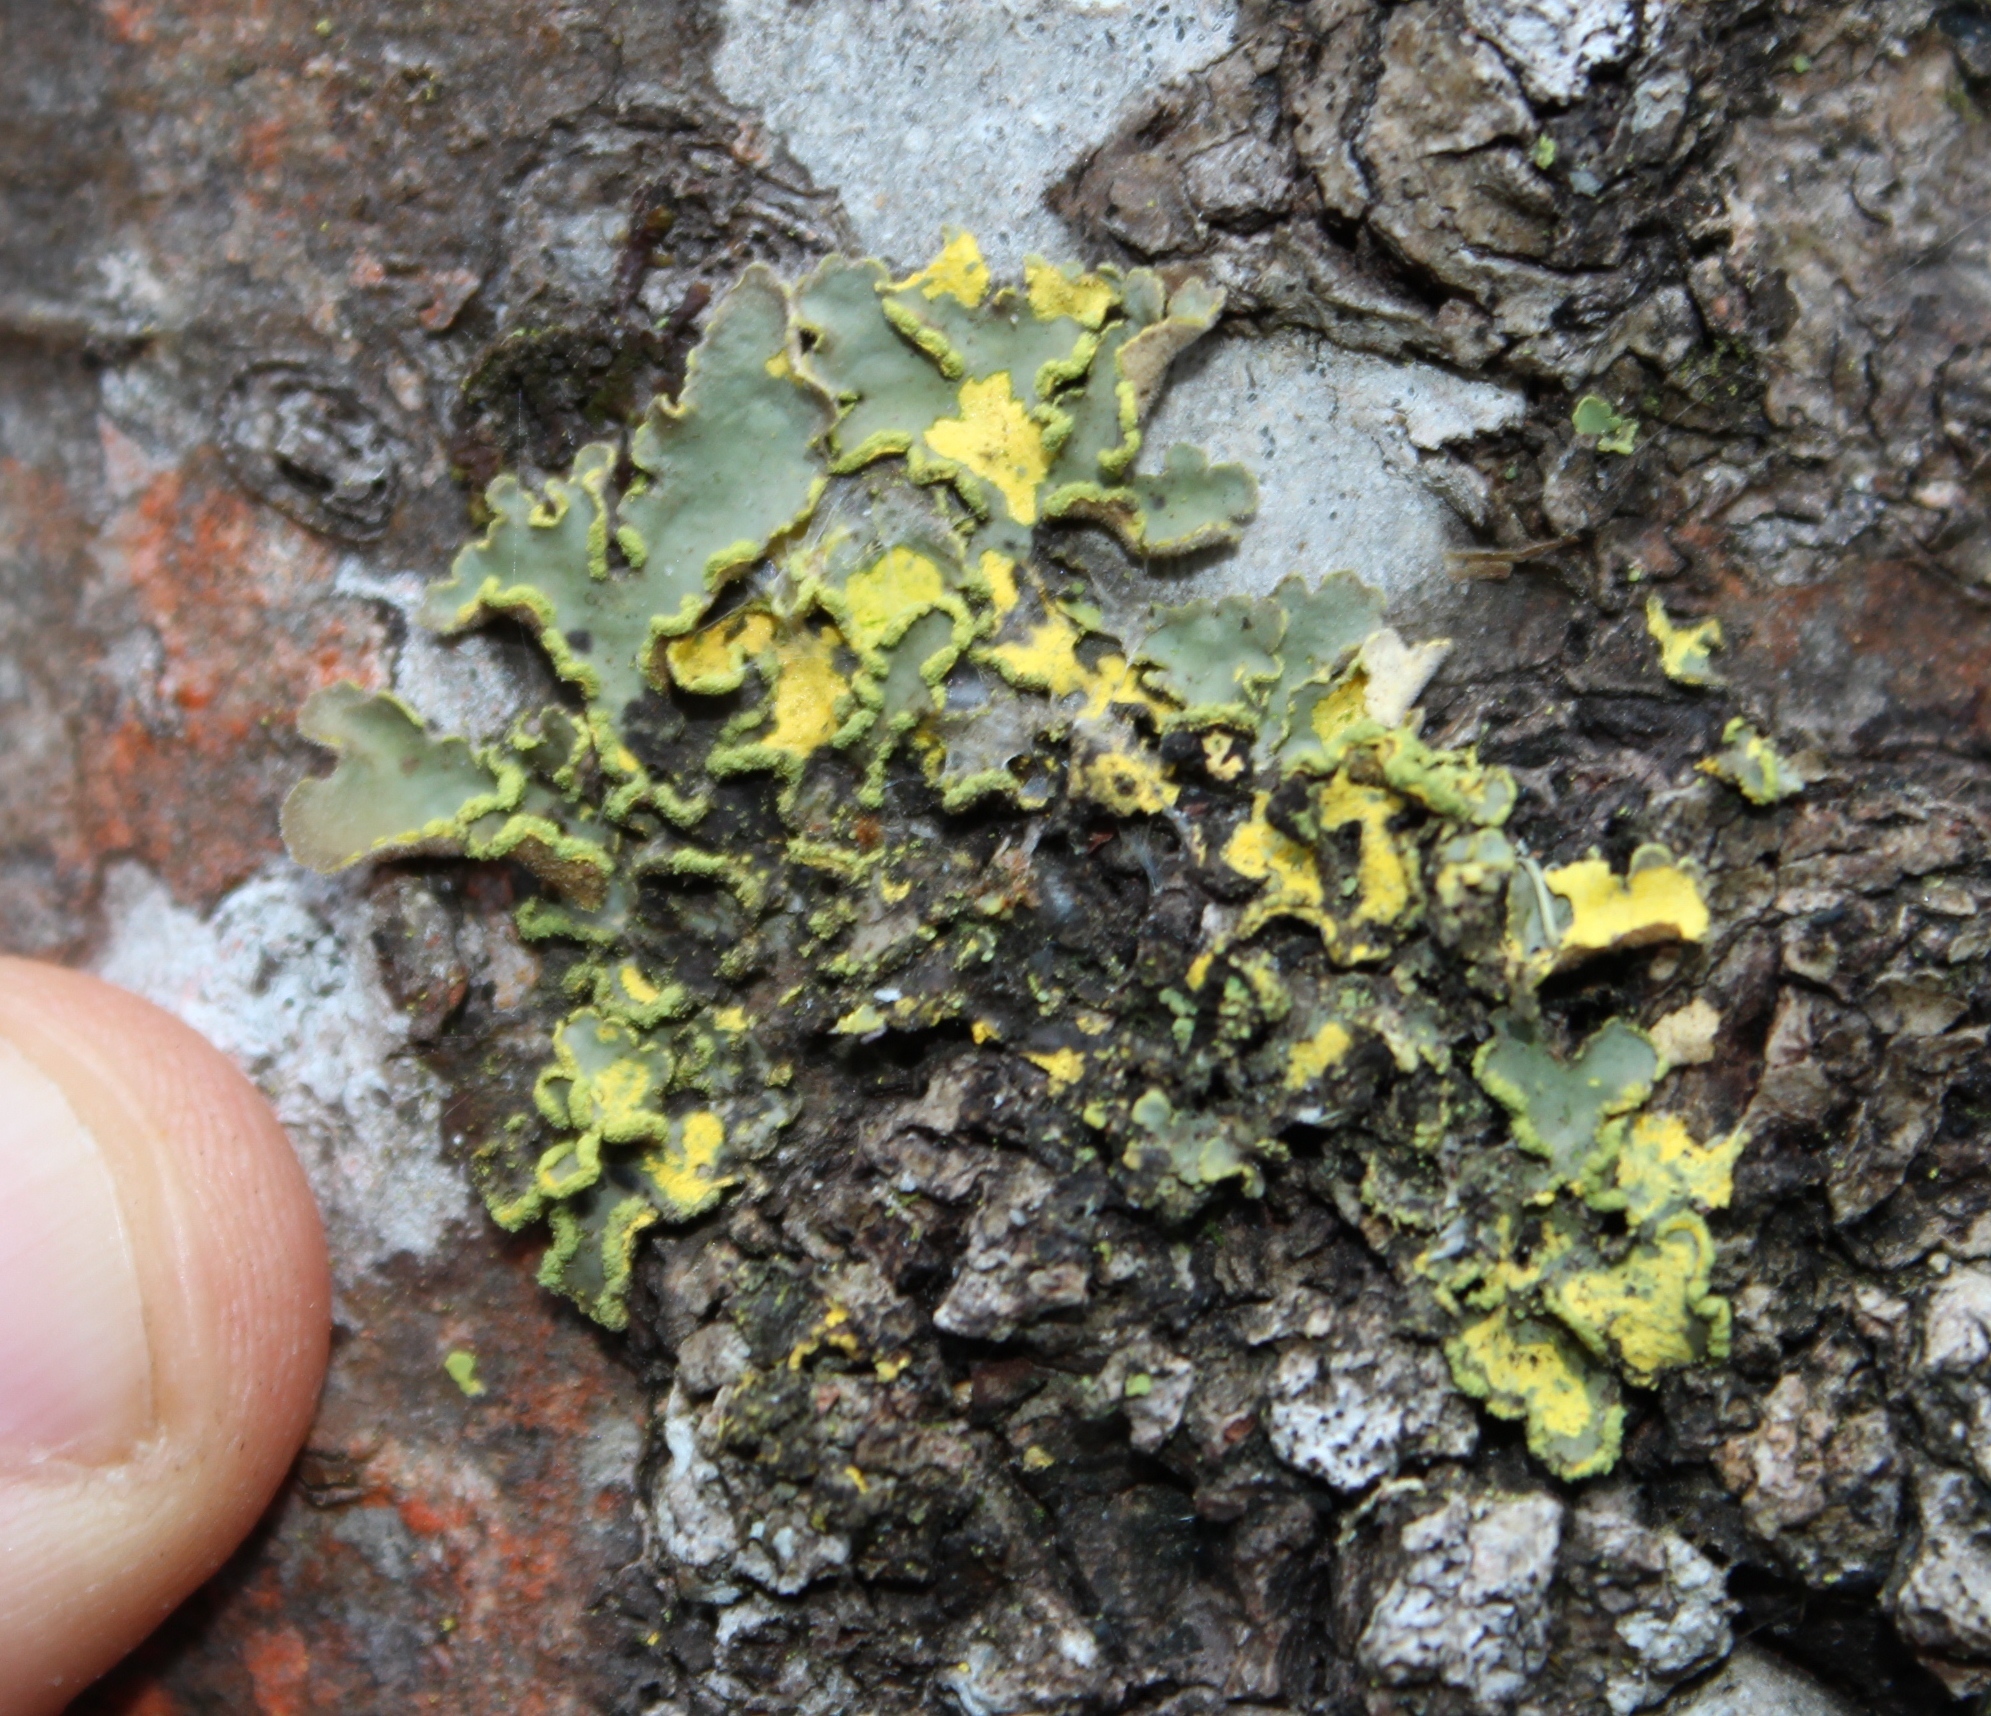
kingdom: Fungi
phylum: Ascomycota
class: Lecanoromycetes
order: Peltigerales
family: Lobariaceae
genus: Pseudocyphellaria
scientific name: Pseudocyphellaria aurata
